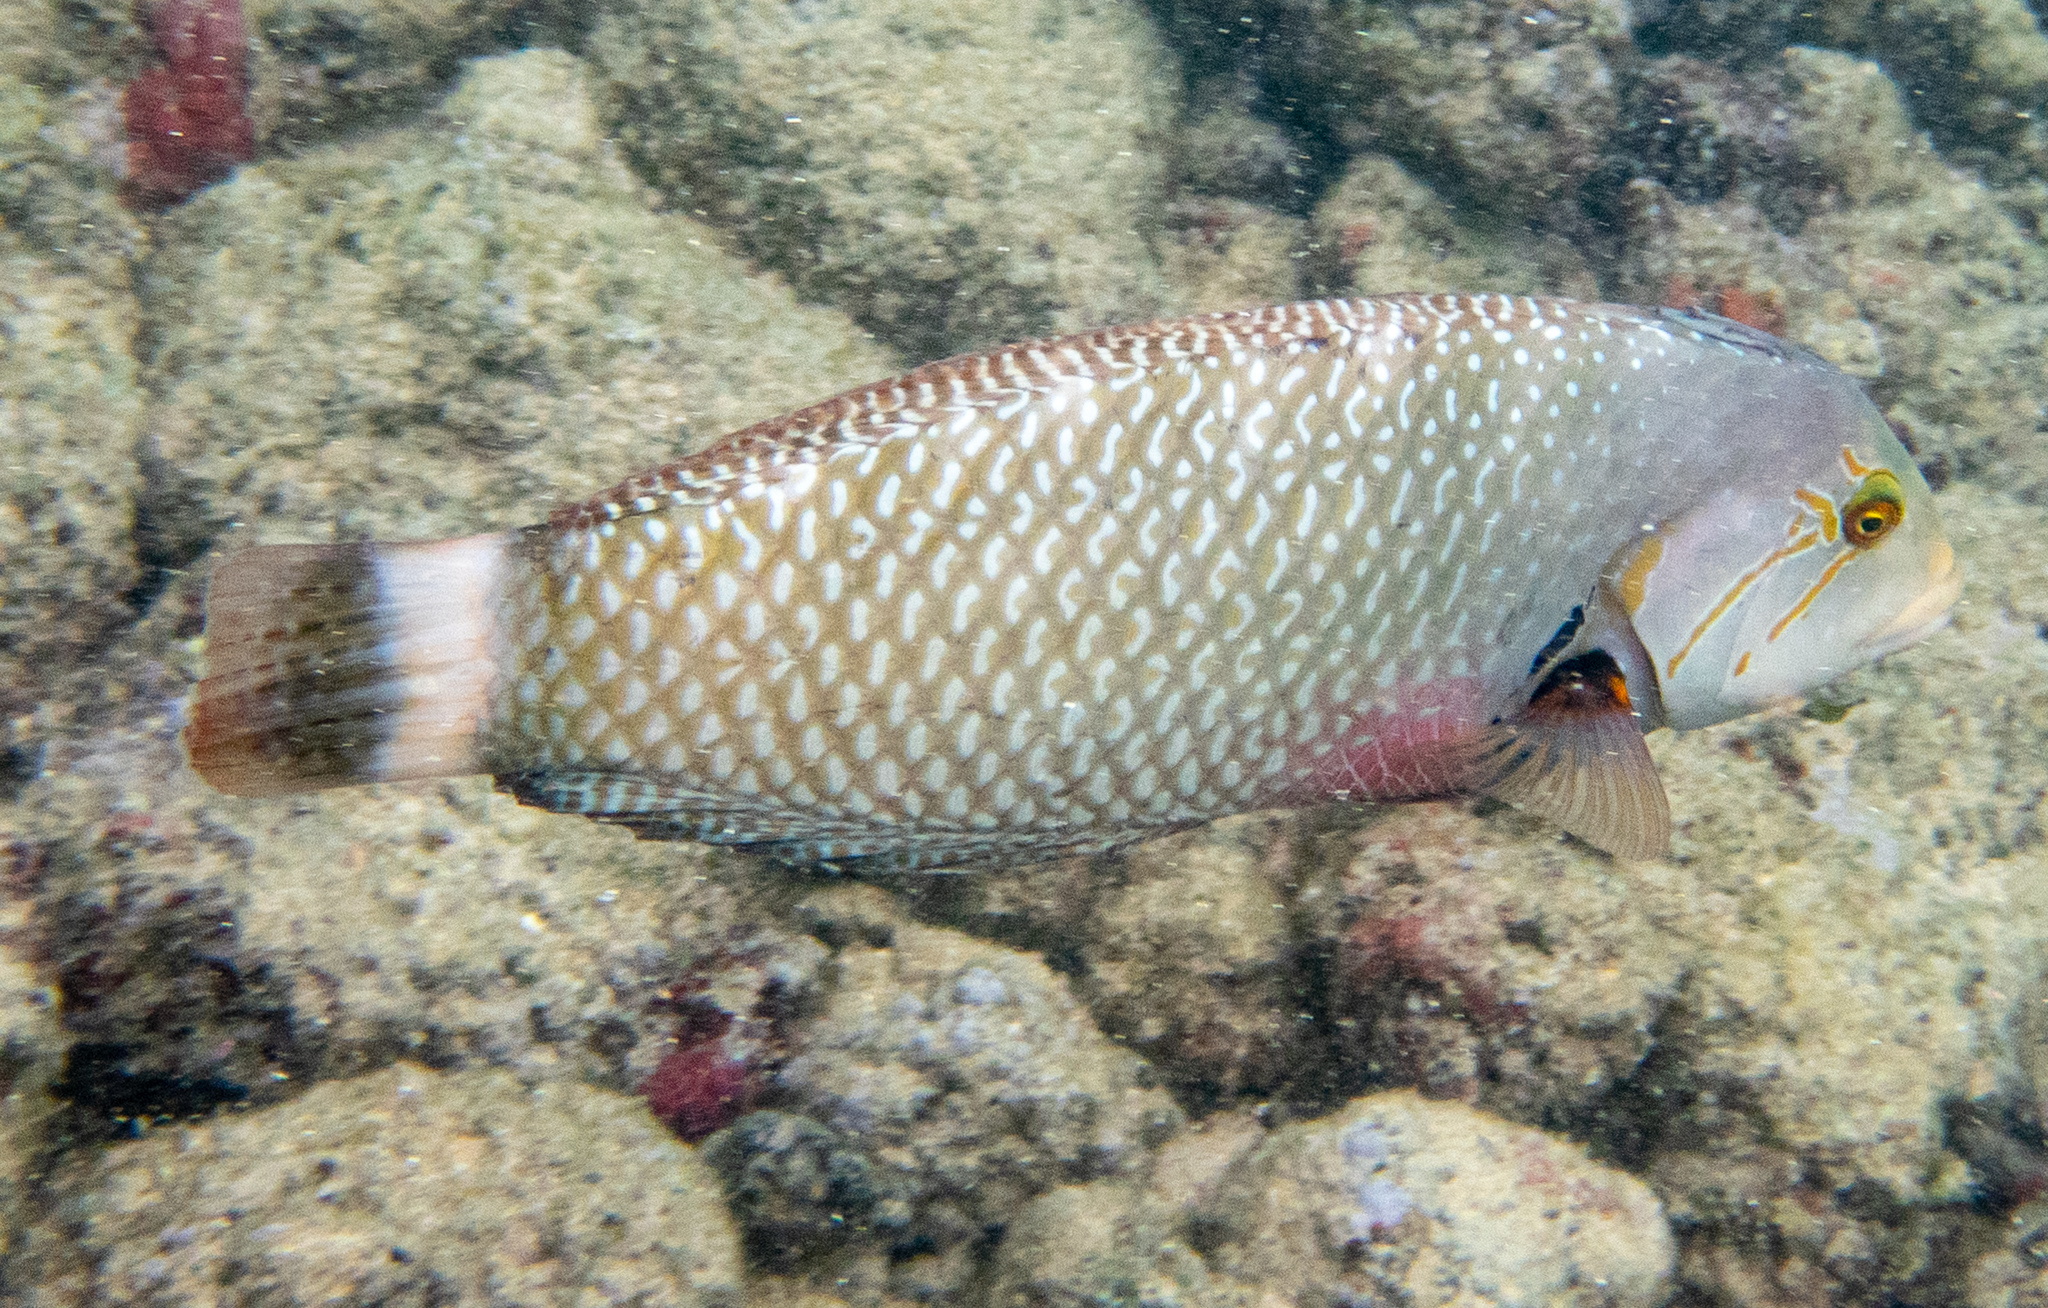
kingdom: Animalia
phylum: Chordata
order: Perciformes
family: Labridae
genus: Novaculichthys
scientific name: Novaculichthys taeniourus
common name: Rockmover wrasse
